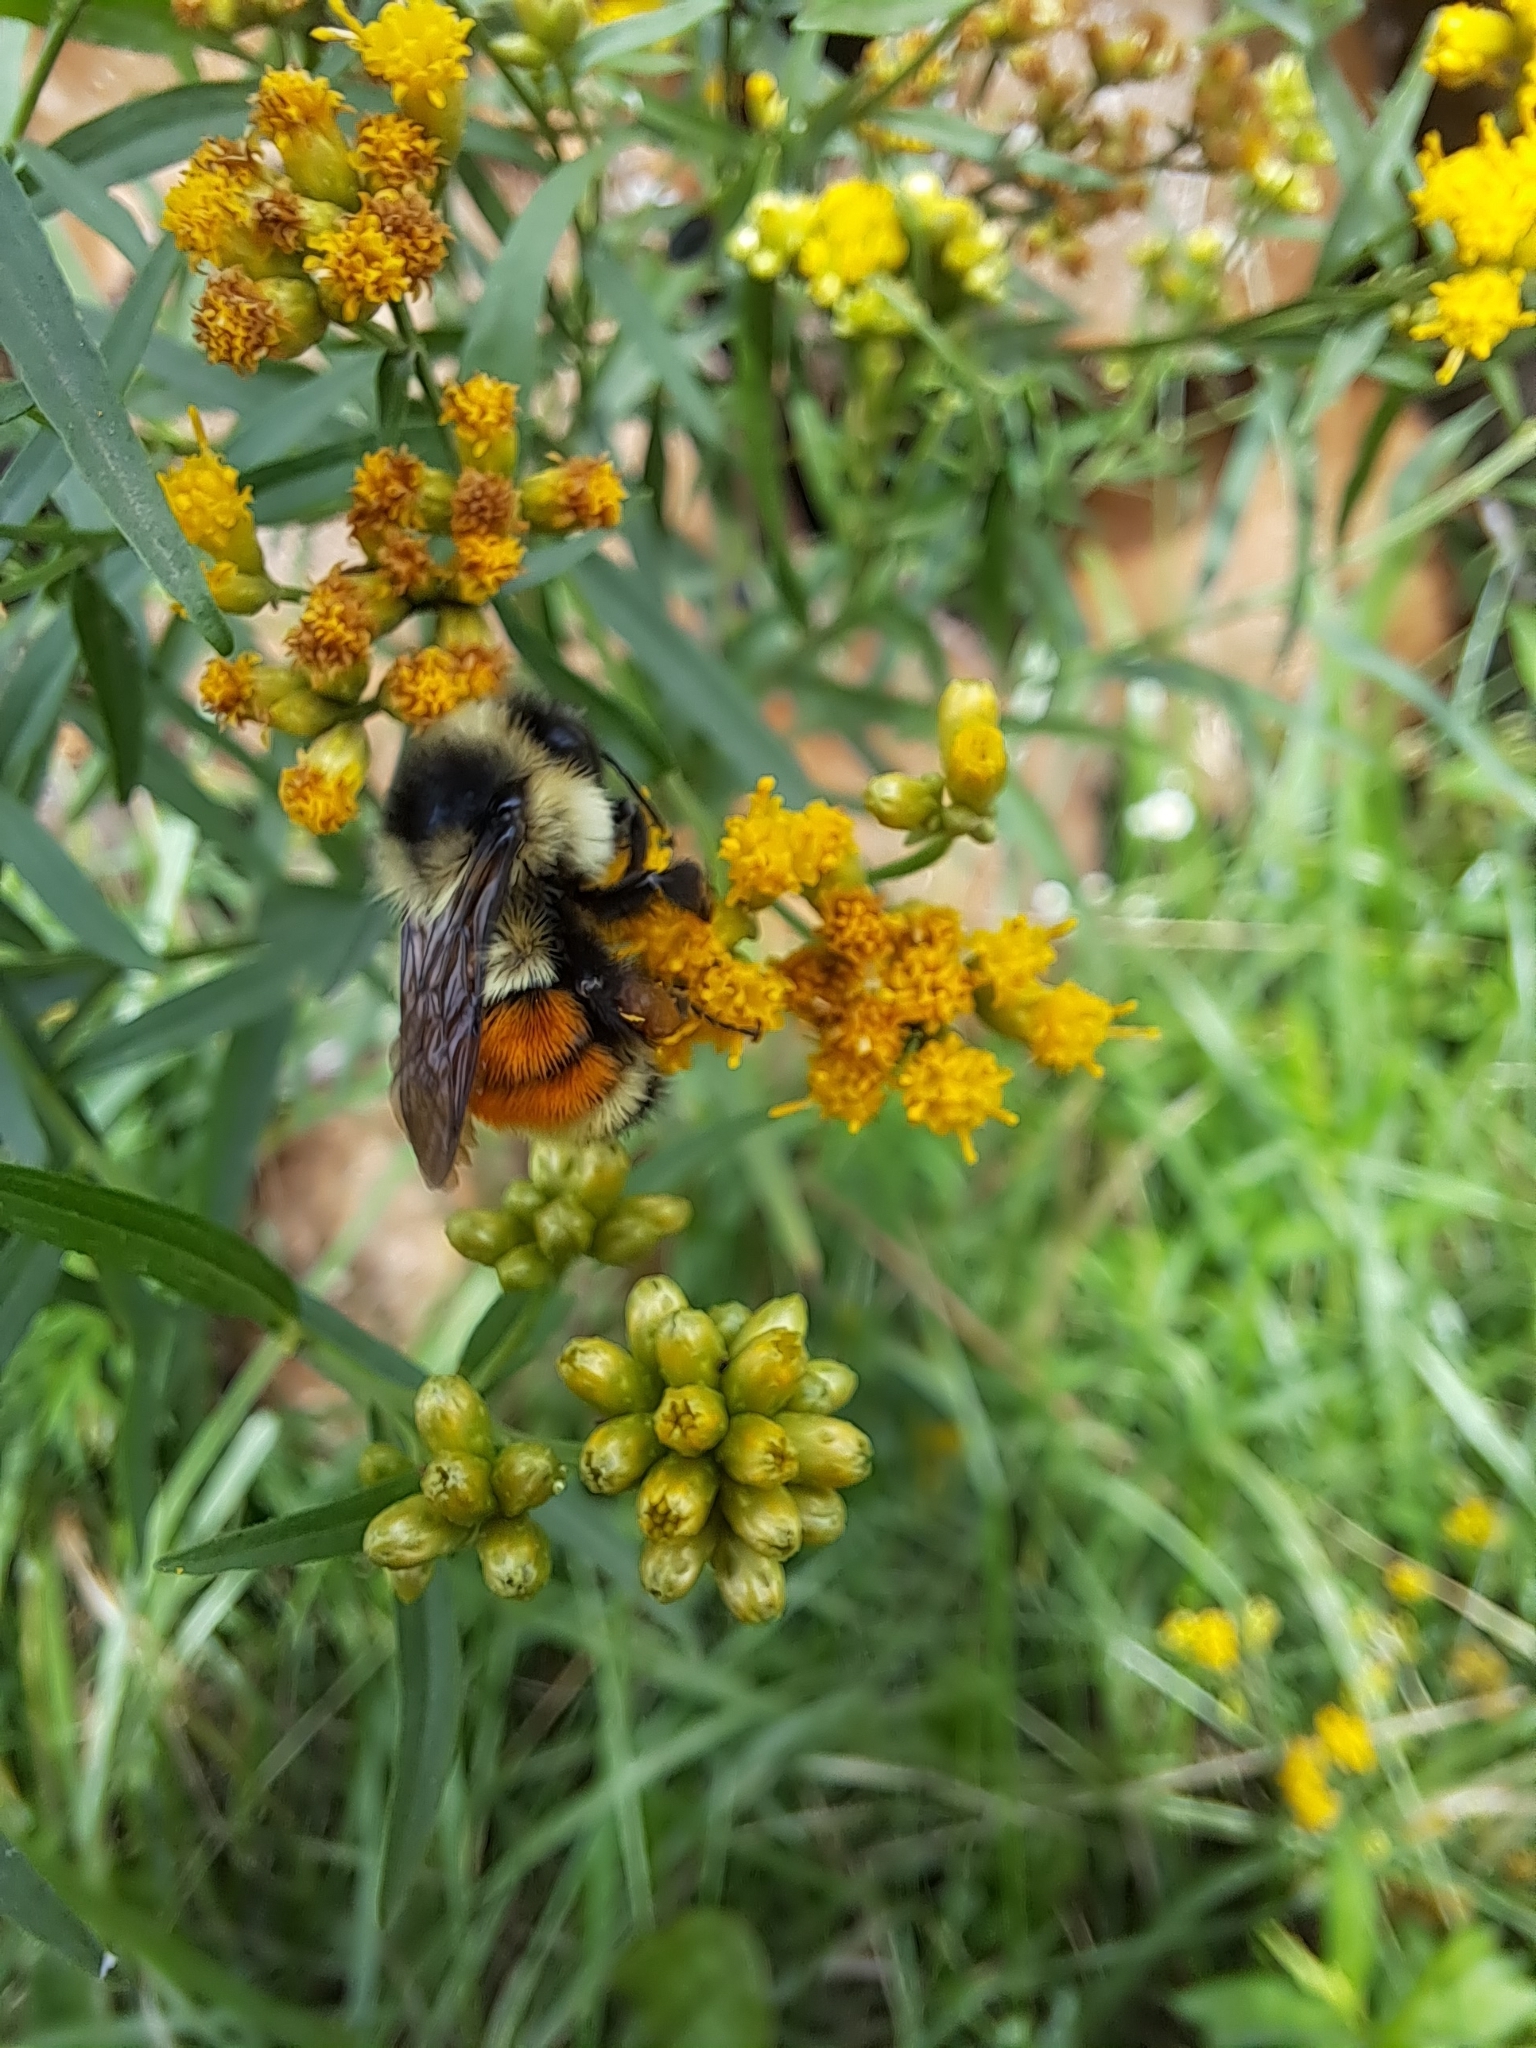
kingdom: Animalia
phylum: Arthropoda
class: Insecta
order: Hymenoptera
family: Apidae
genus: Bombus
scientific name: Bombus ternarius
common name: Tri-colored bumble bee
